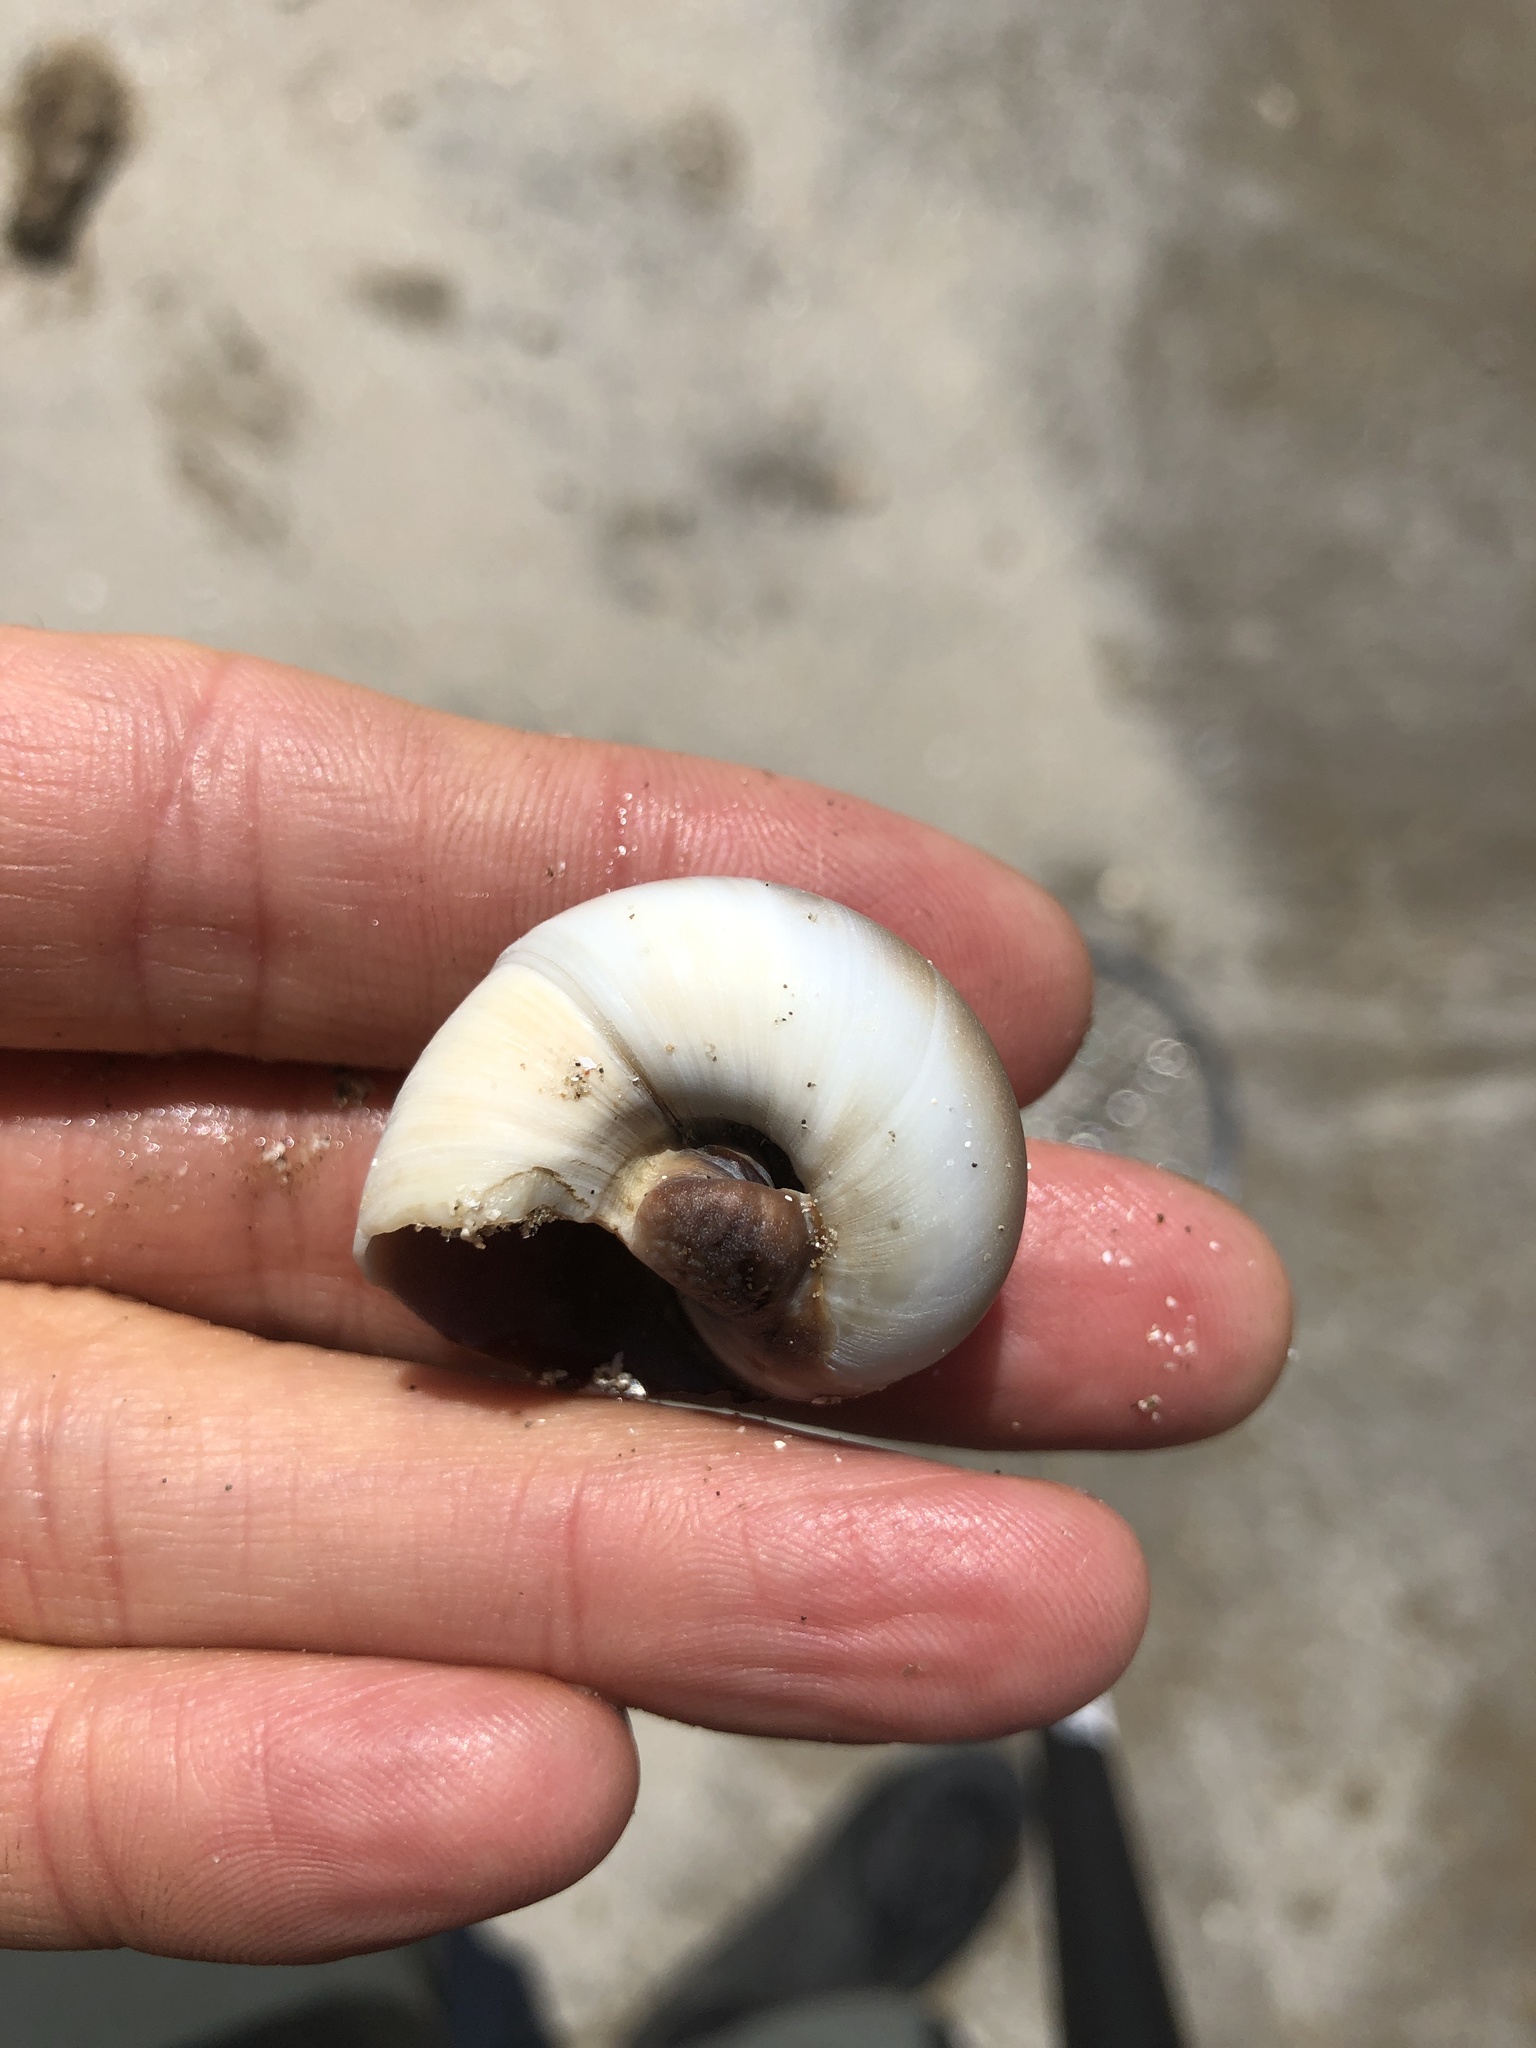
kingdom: Animalia
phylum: Mollusca
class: Gastropoda
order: Littorinimorpha
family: Naticidae
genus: Neverita
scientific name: Neverita delessertiana
